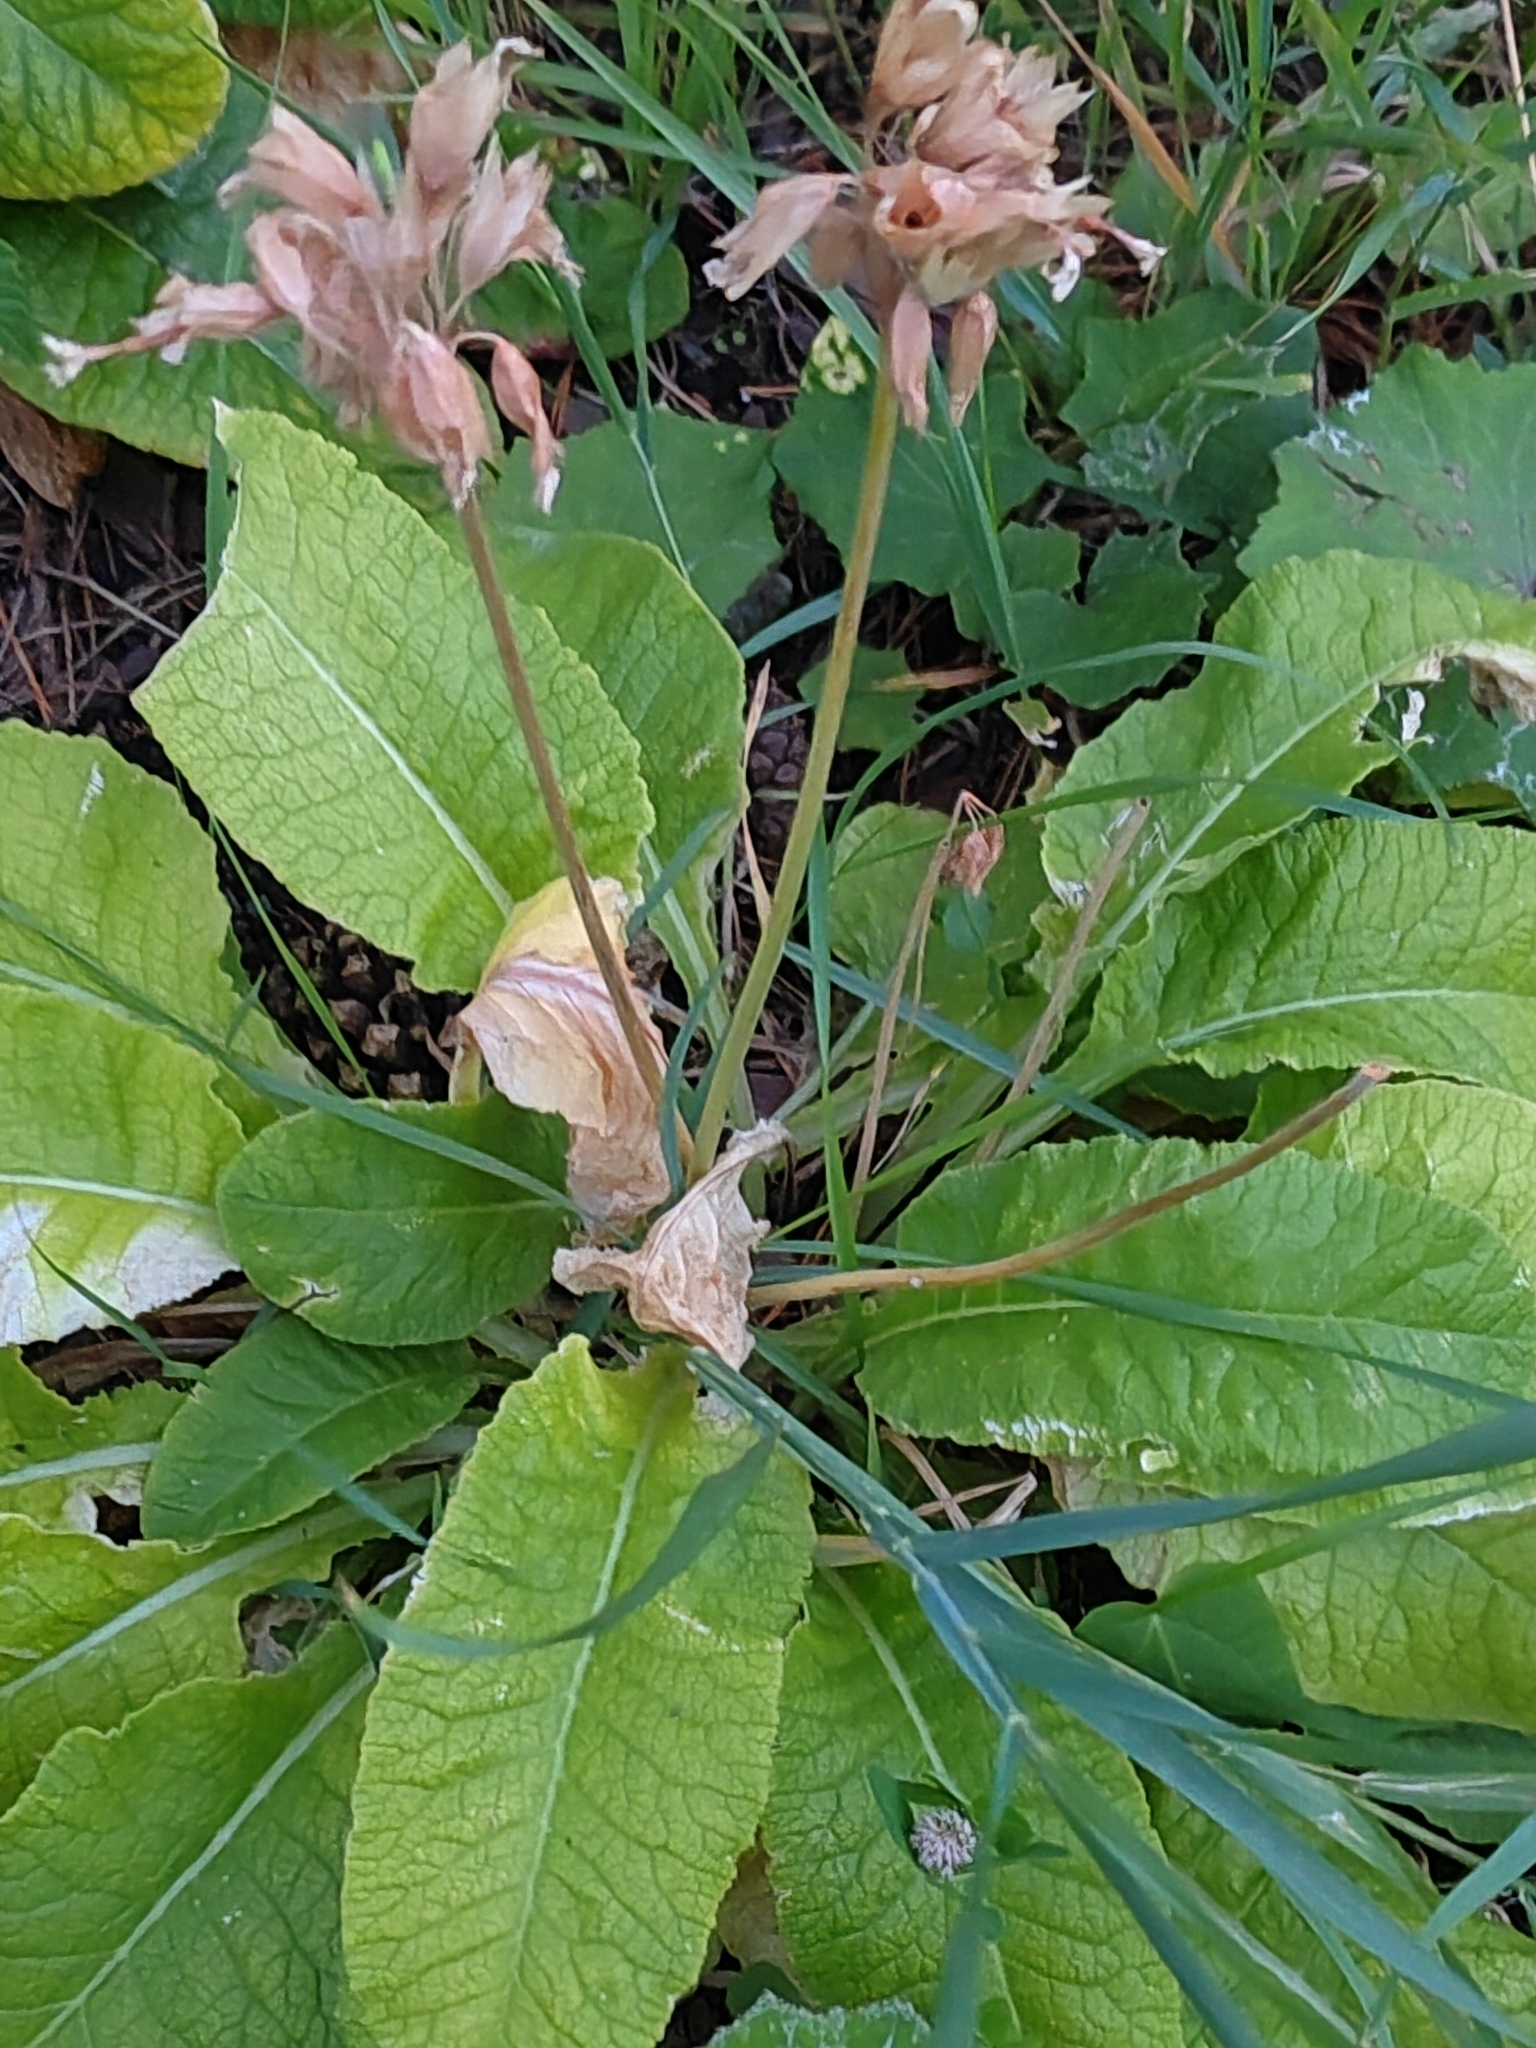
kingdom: Plantae
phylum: Tracheophyta
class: Magnoliopsida
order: Ericales
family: Primulaceae
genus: Primula
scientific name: Primula veris
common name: Cowslip
